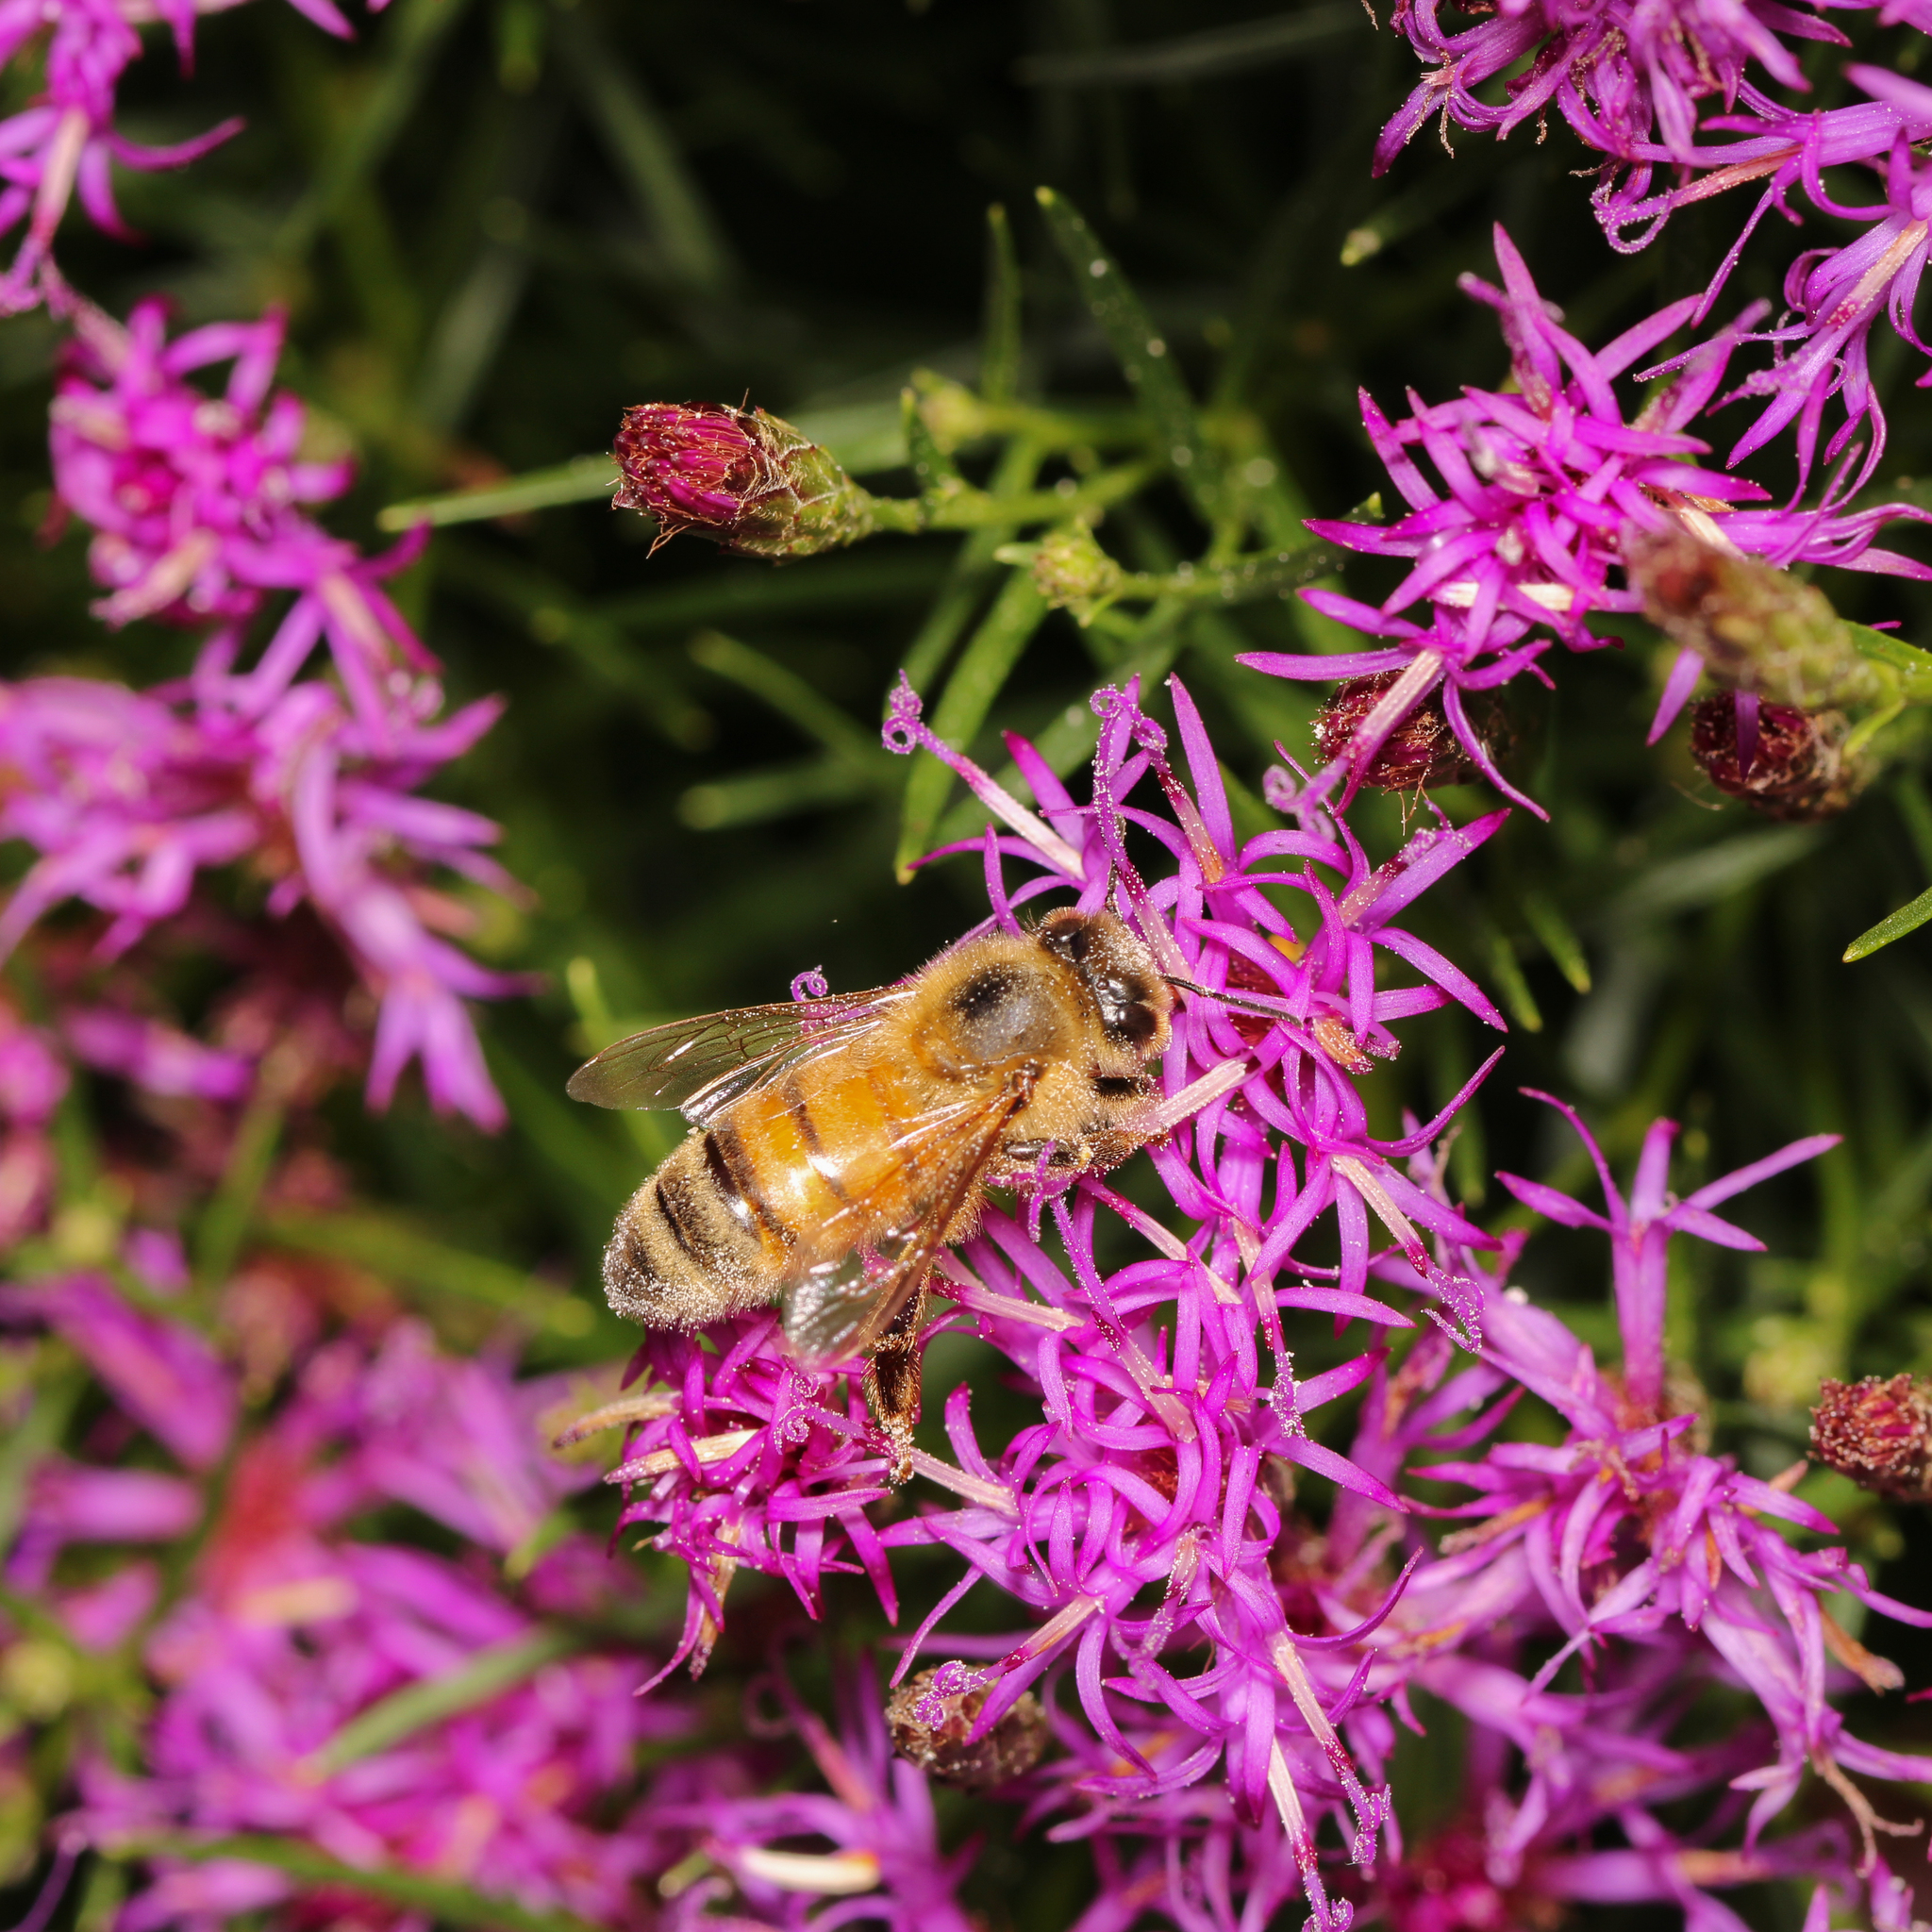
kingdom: Animalia
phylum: Arthropoda
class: Insecta
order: Hymenoptera
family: Apidae
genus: Apis
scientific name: Apis mellifera
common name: Honey bee
